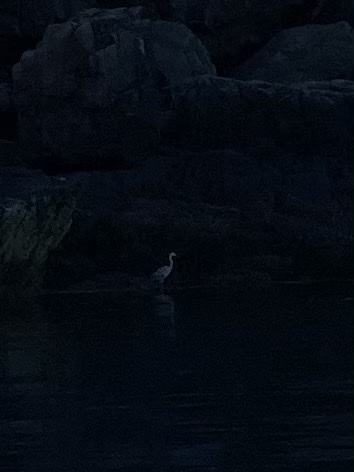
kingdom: Animalia
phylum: Chordata
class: Aves
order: Pelecaniformes
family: Ardeidae
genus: Ardea
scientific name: Ardea herodias
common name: Great blue heron
